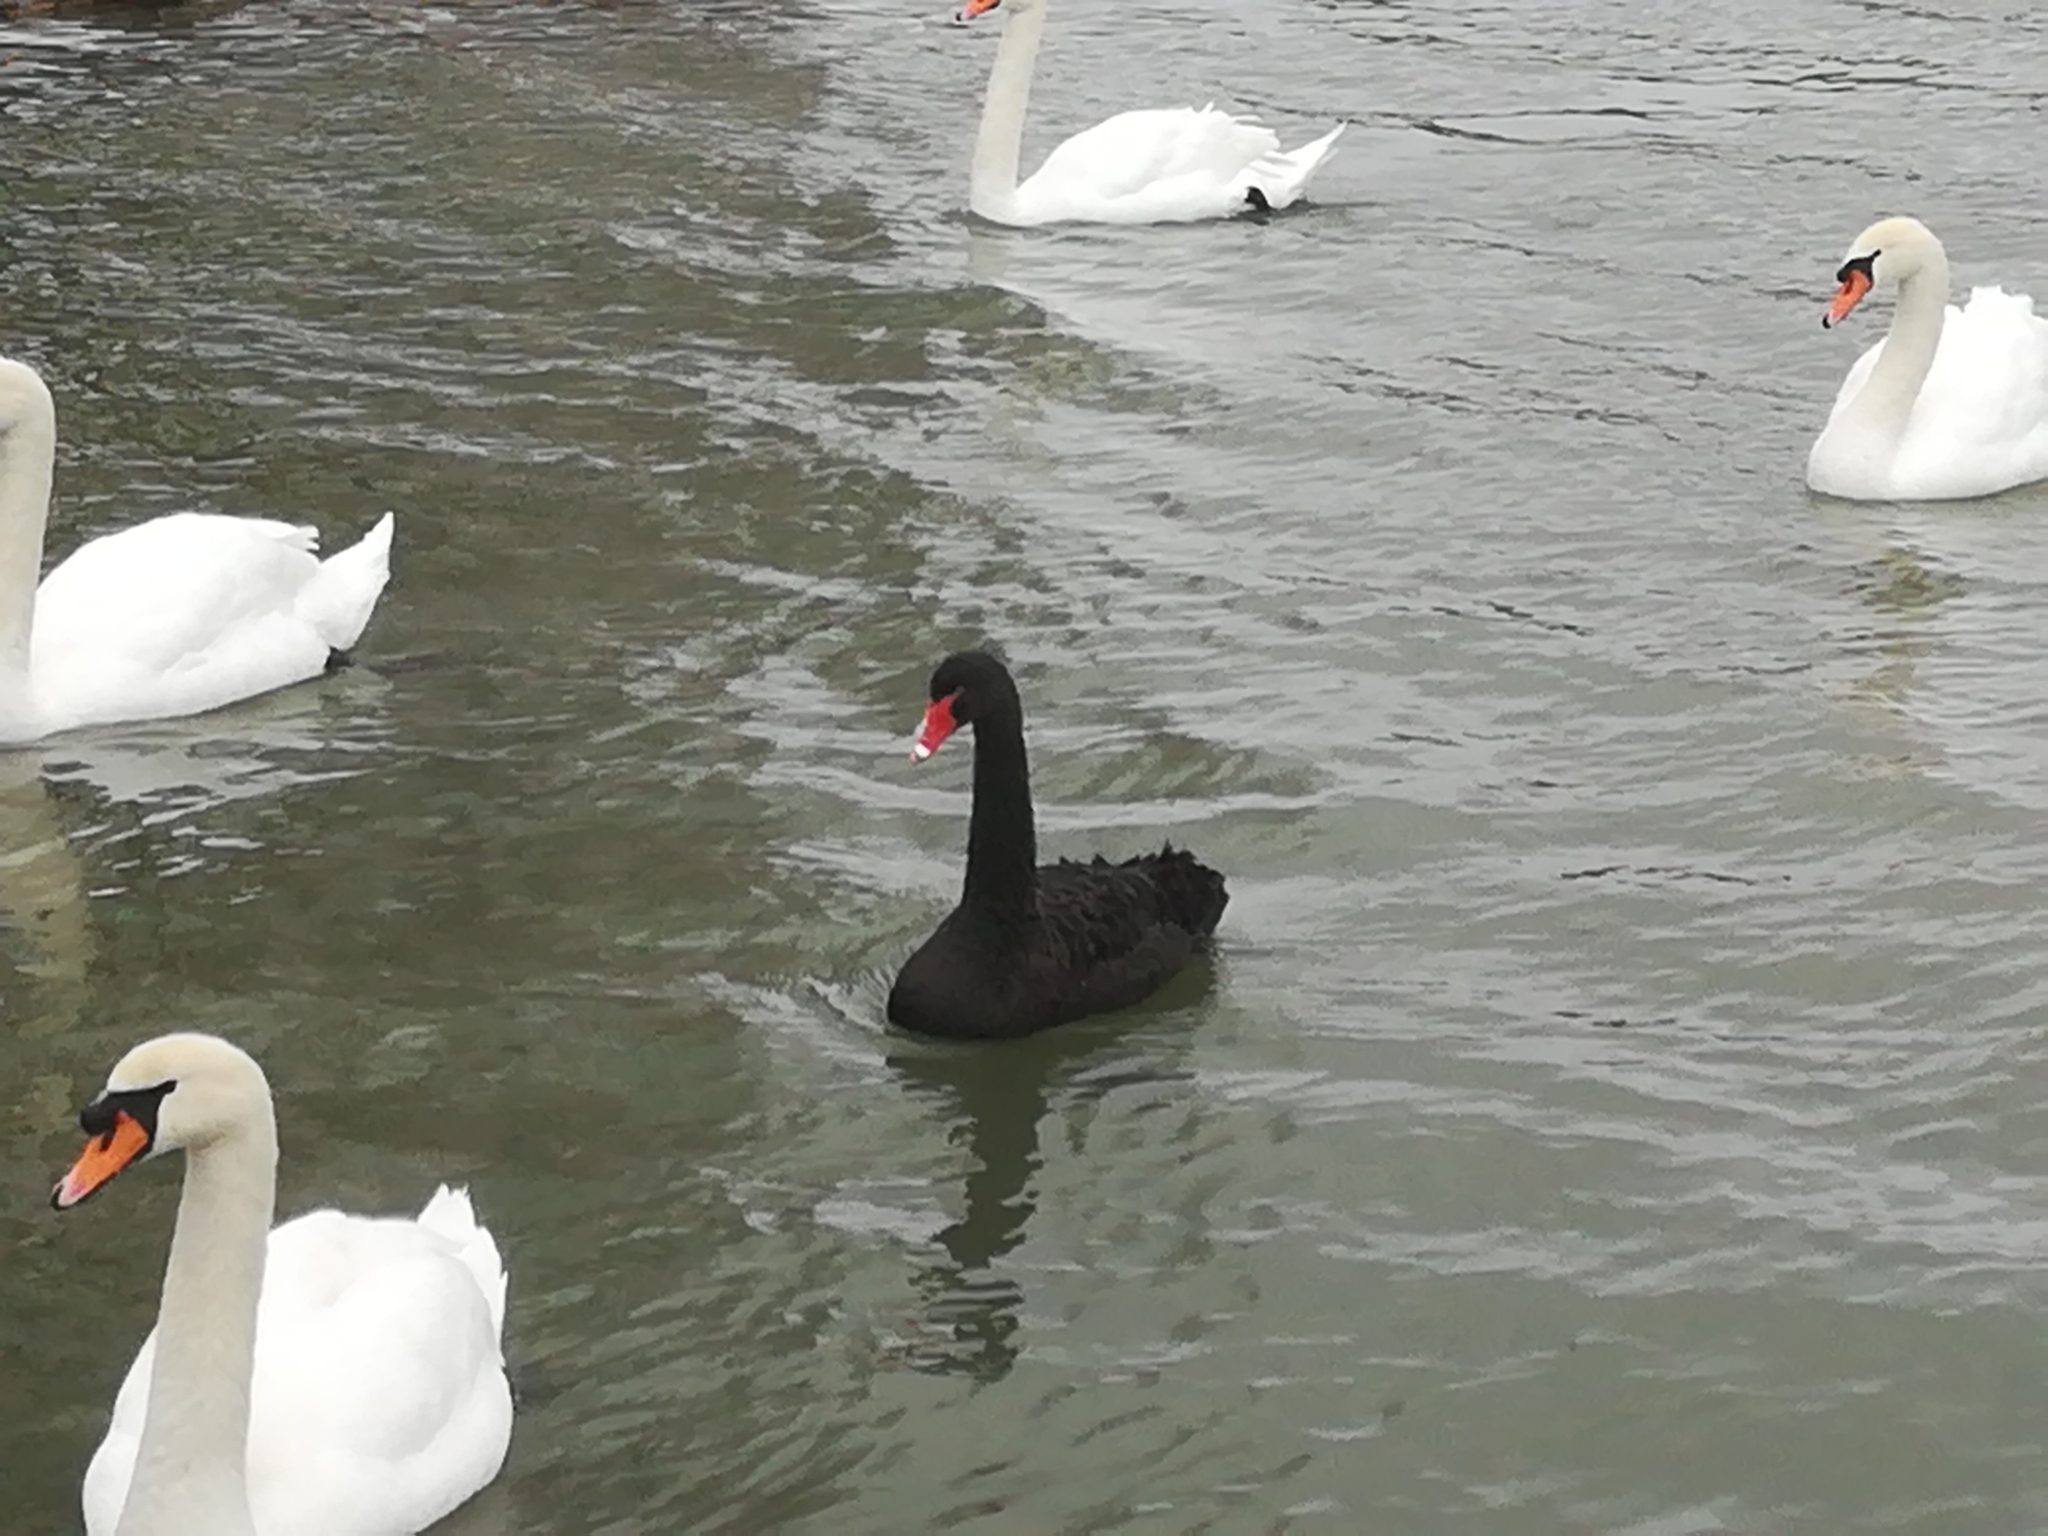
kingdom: Animalia
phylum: Chordata
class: Aves
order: Anseriformes
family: Anatidae
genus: Cygnus
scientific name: Cygnus atratus
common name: Black swan
